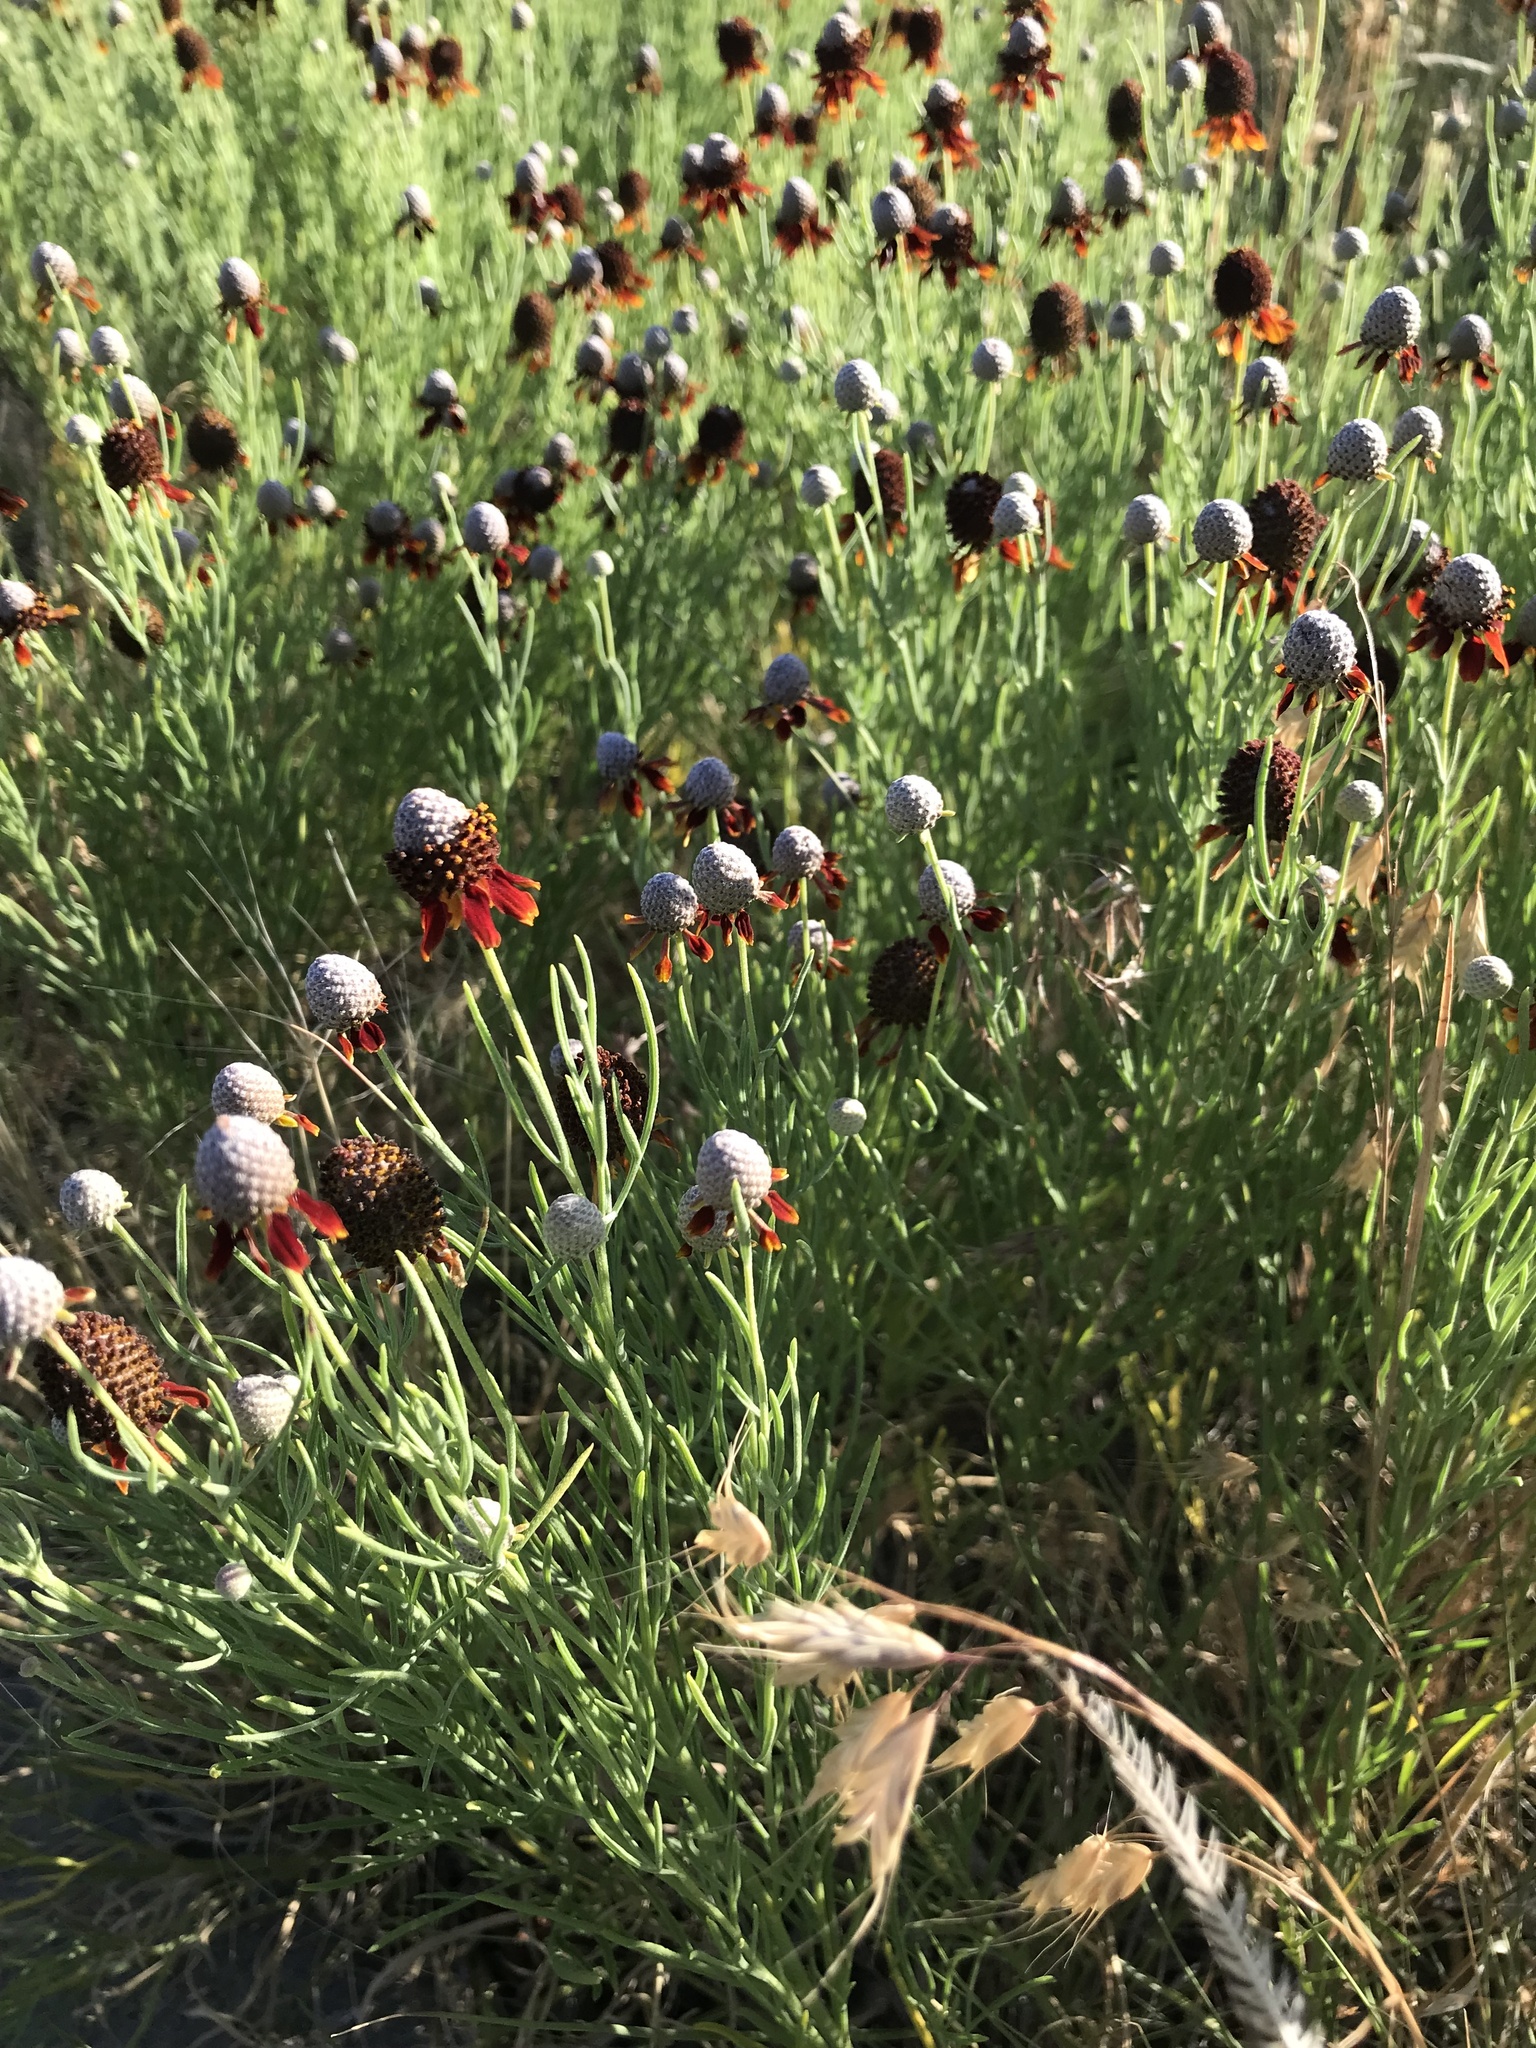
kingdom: Plantae
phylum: Tracheophyta
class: Magnoliopsida
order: Asterales
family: Asteraceae
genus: Ratibida
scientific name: Ratibida tagetes
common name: Green mexican-hat
